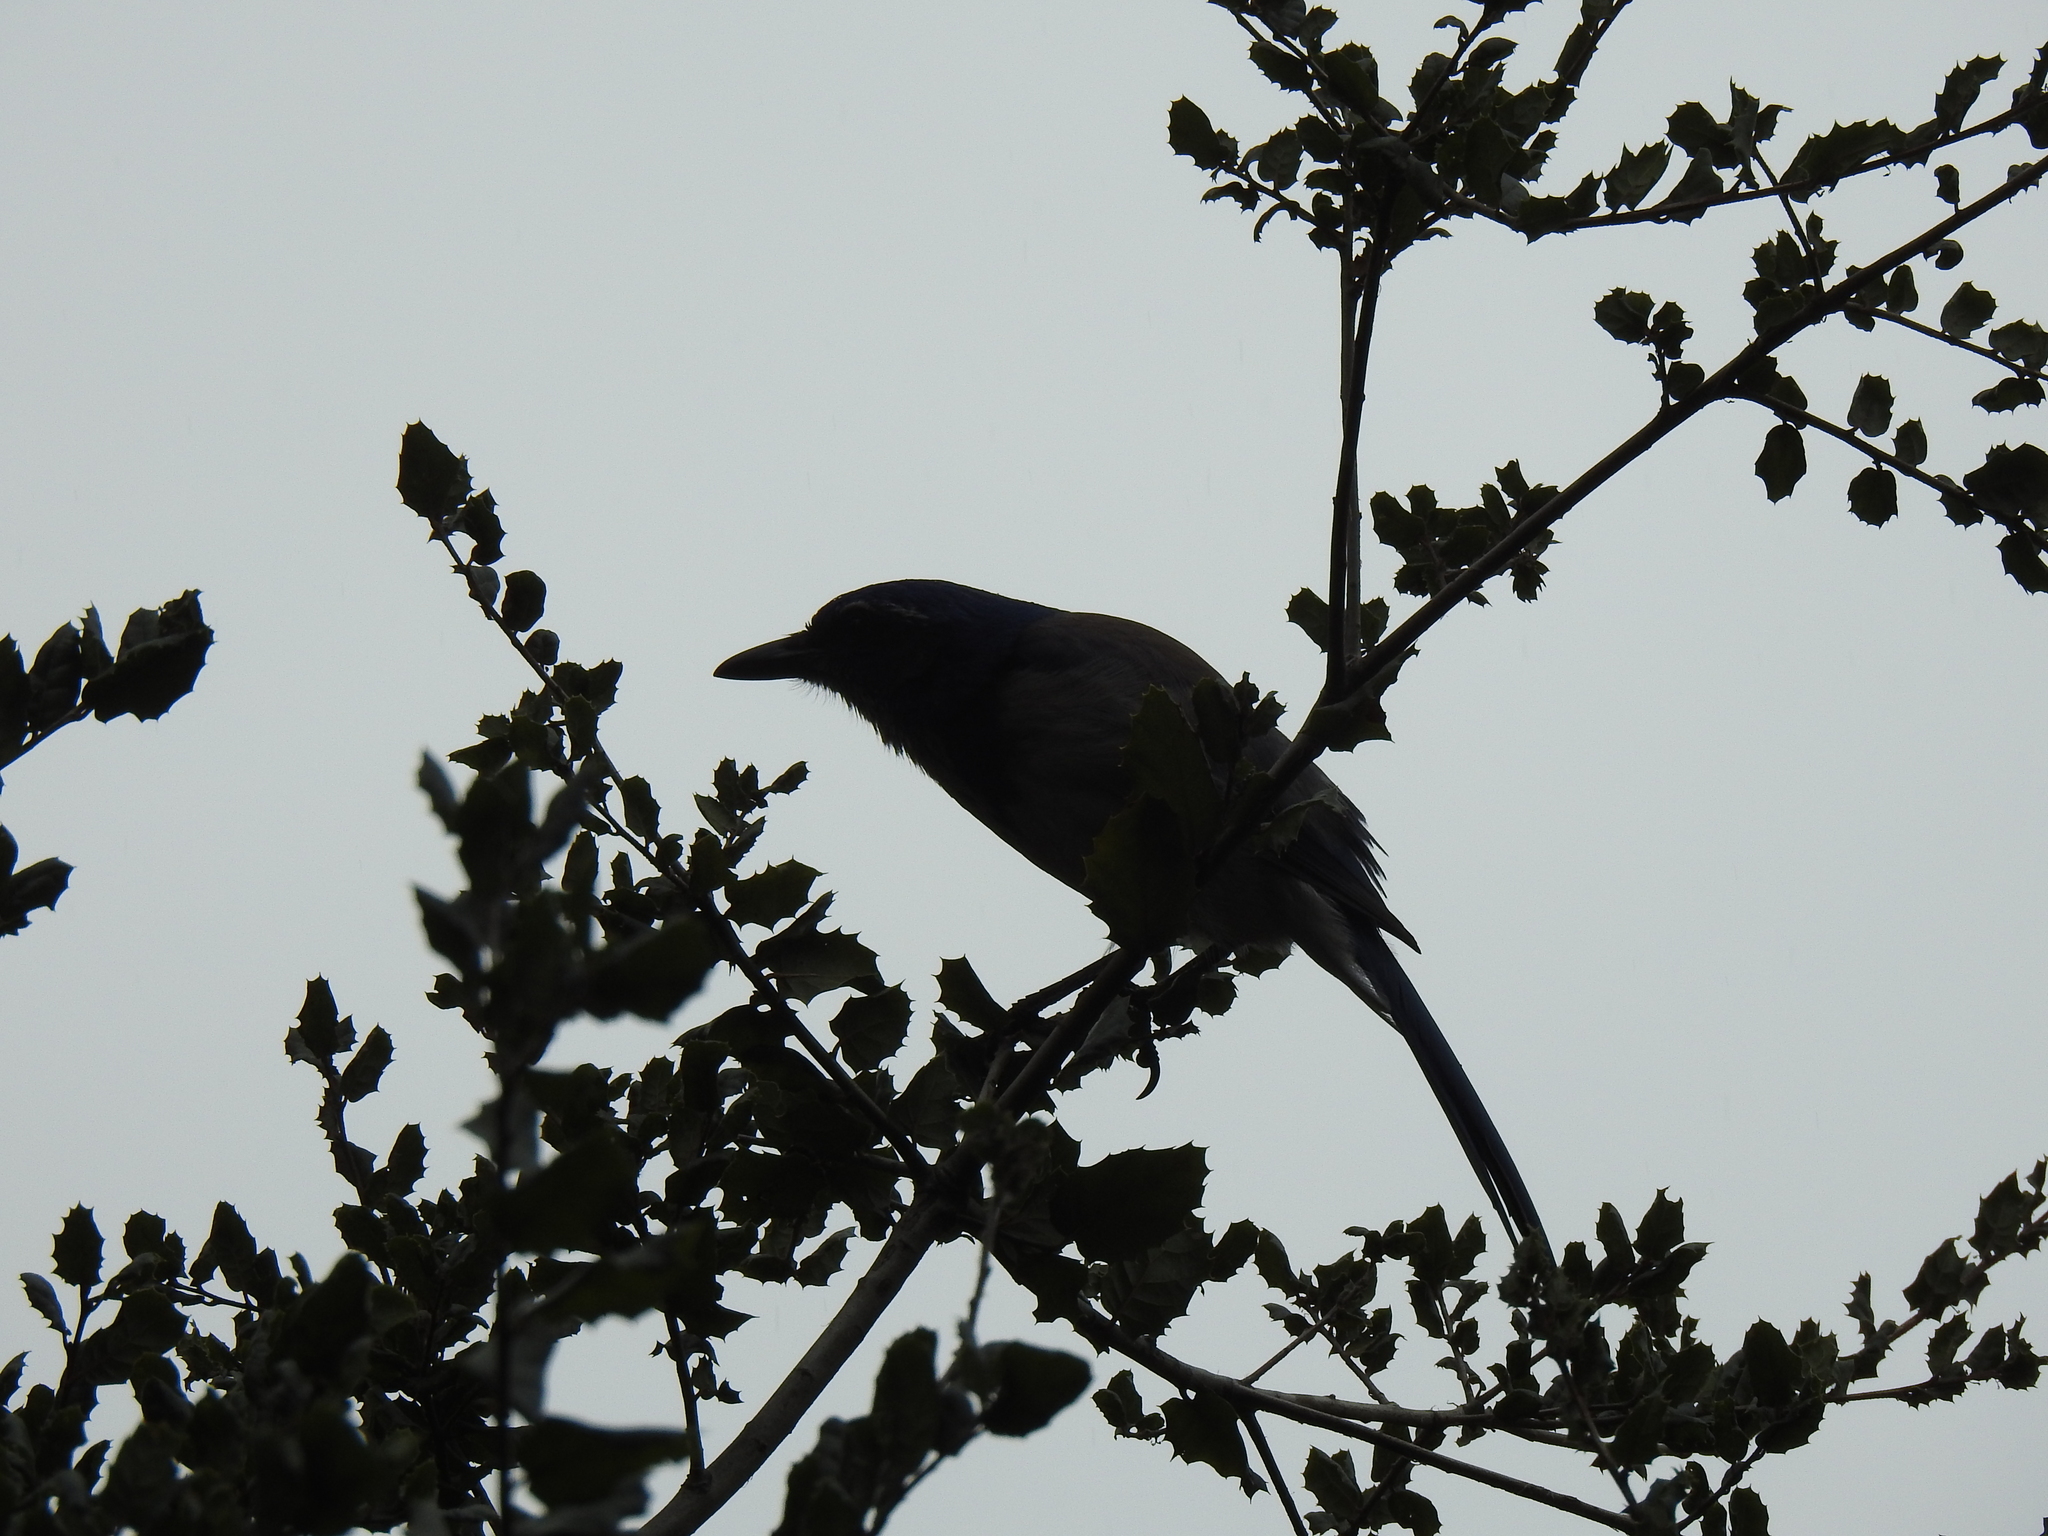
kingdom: Animalia
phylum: Chordata
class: Aves
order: Passeriformes
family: Corvidae
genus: Aphelocoma
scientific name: Aphelocoma californica
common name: California scrub-jay
